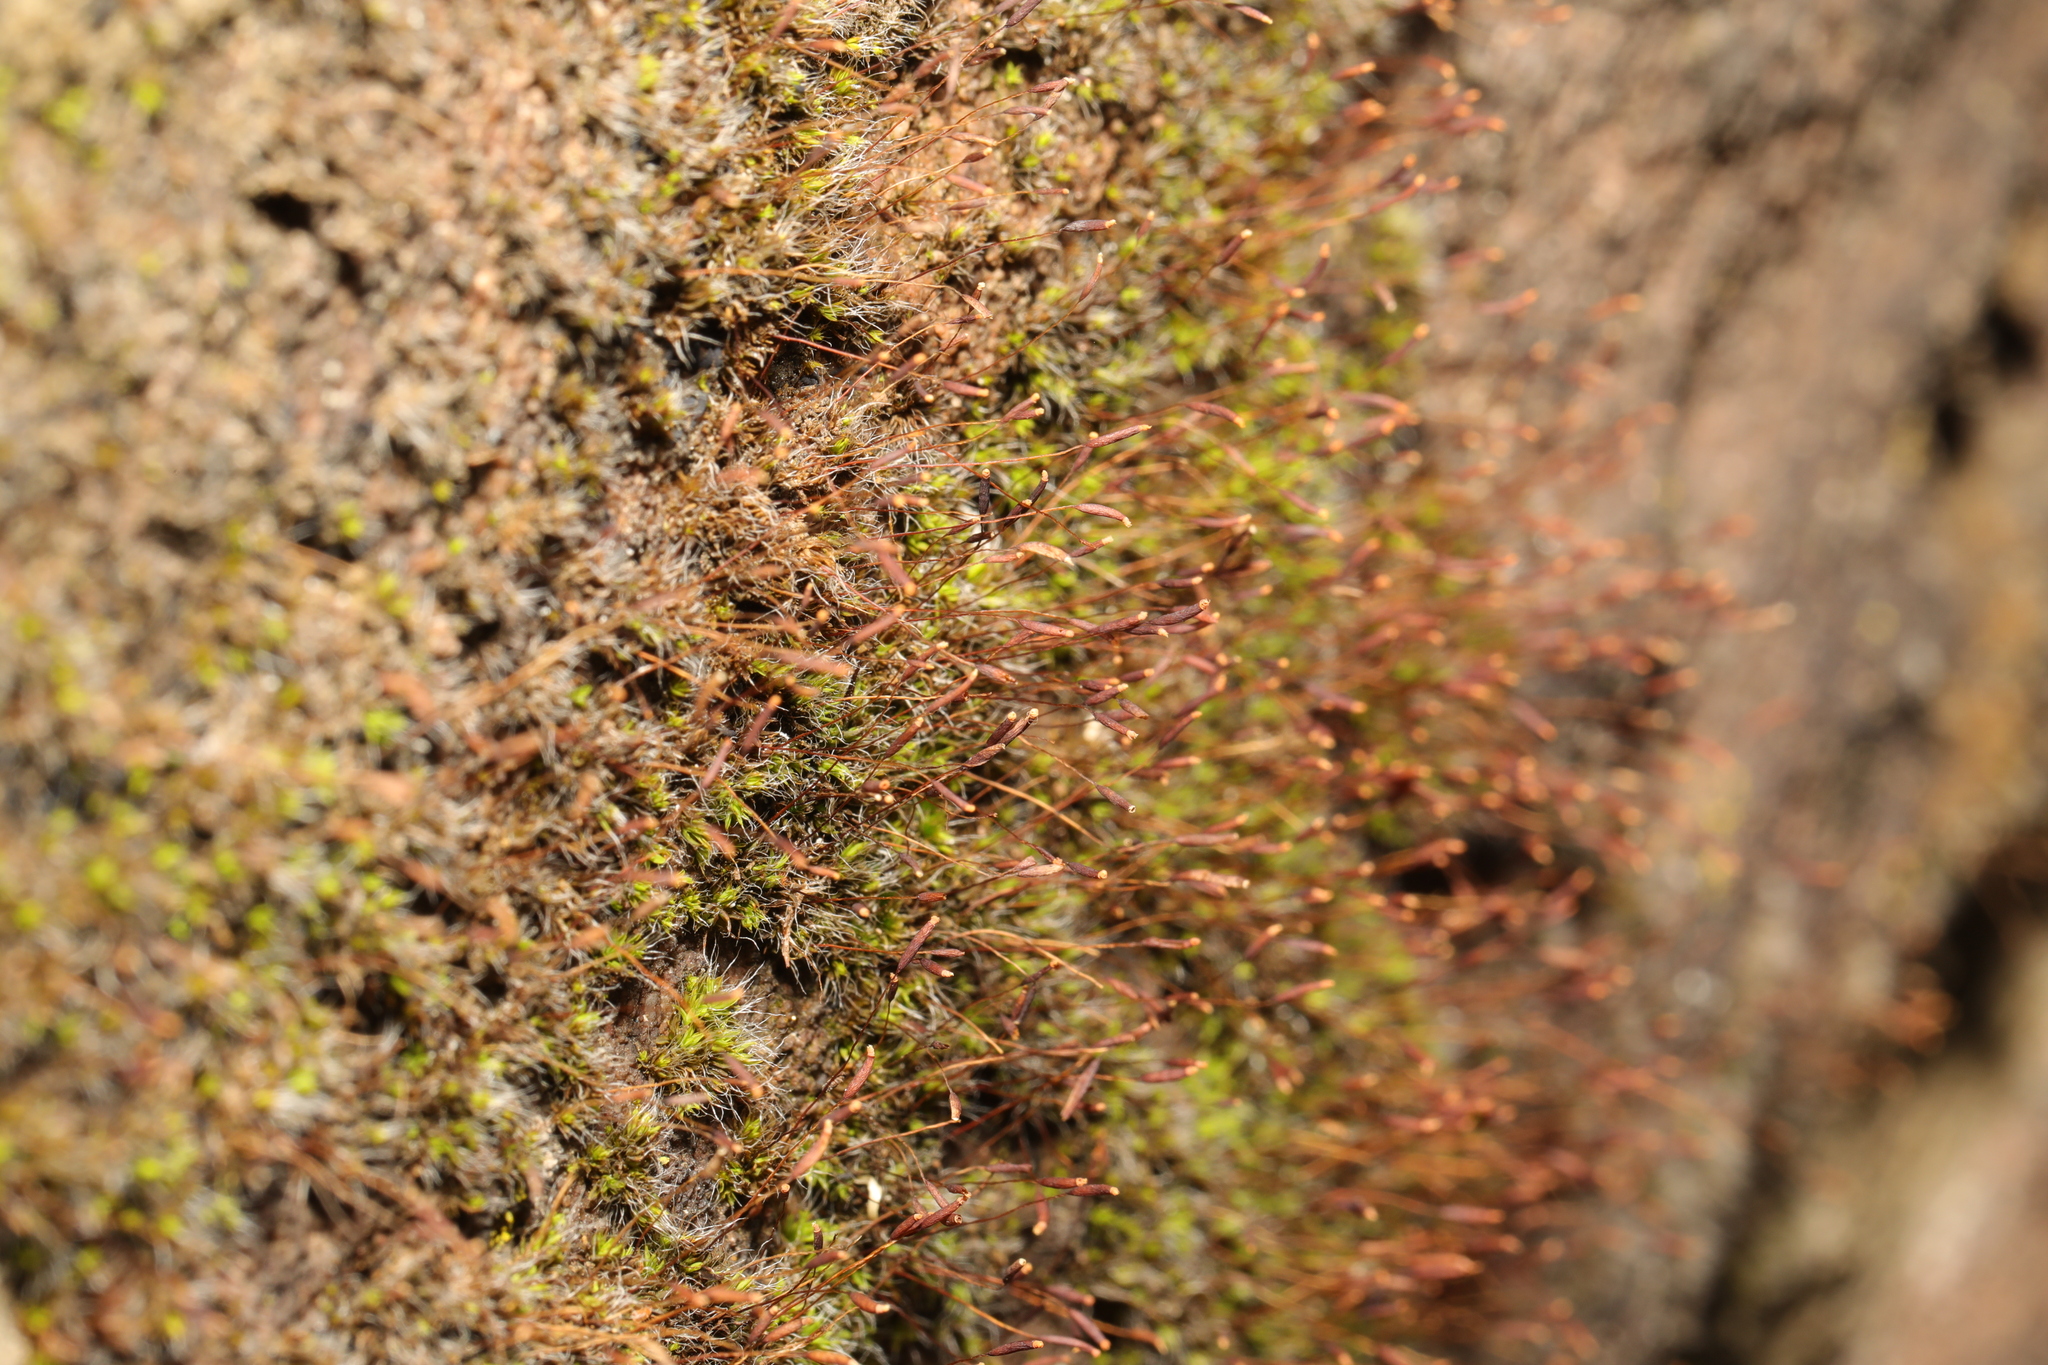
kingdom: Plantae
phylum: Bryophyta
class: Bryopsida
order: Pottiales
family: Pottiaceae
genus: Tortula
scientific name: Tortula muralis
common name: Wall screw-moss
